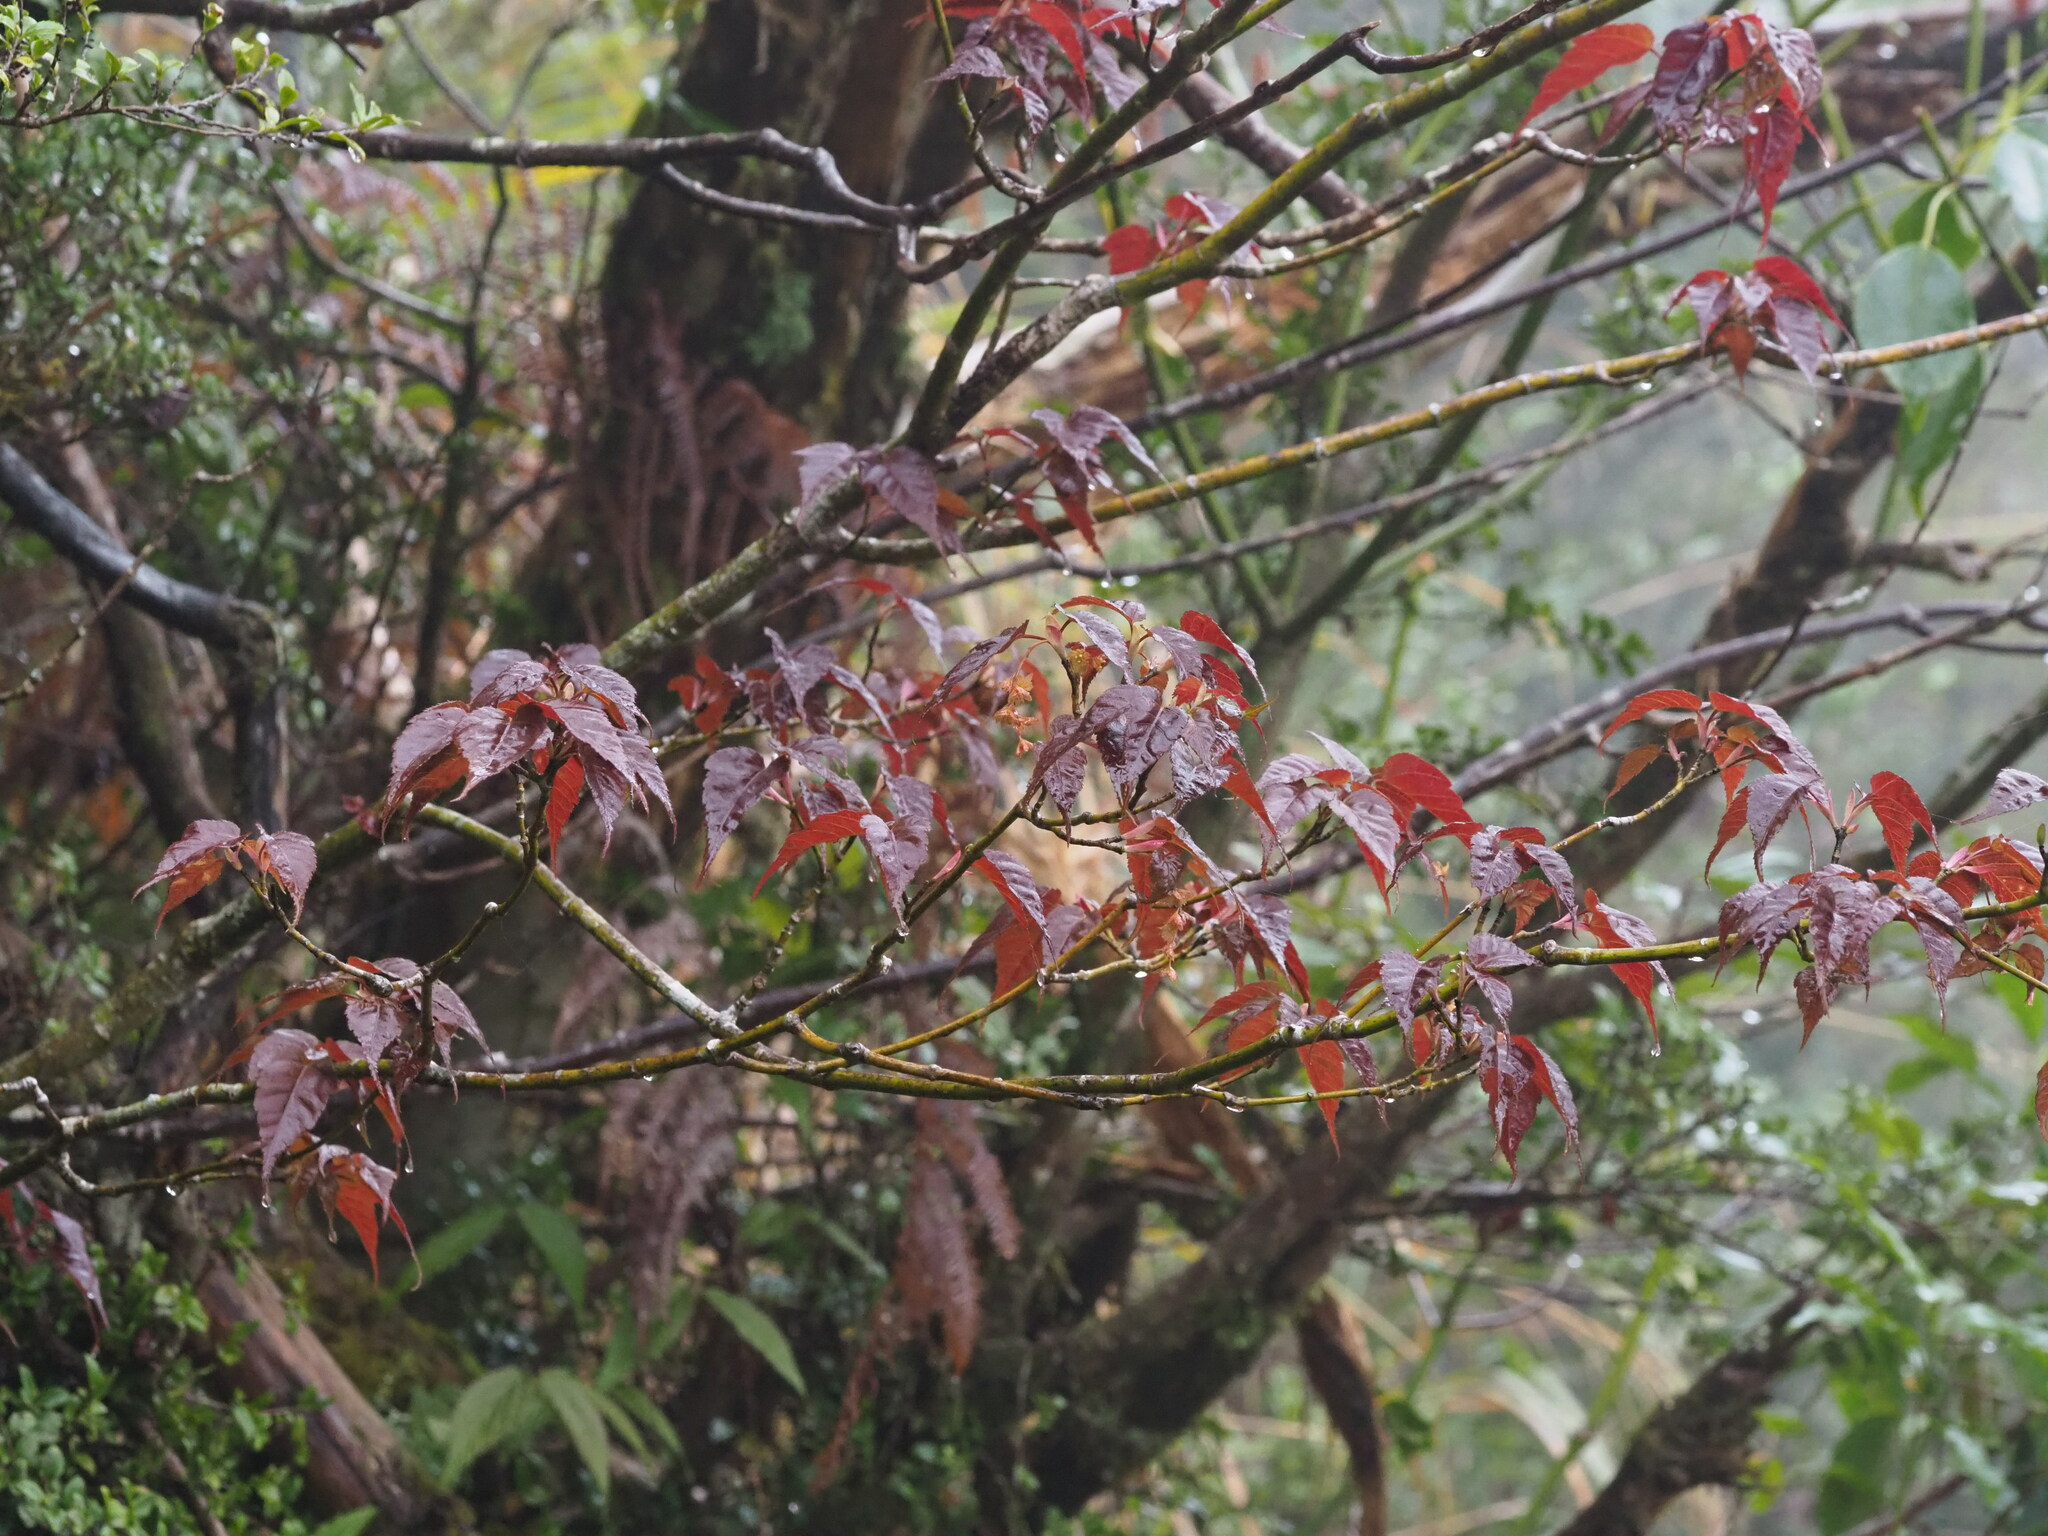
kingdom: Plantae
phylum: Tracheophyta
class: Magnoliopsida
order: Sapindales
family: Sapindaceae
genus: Acer
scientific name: Acer caudatifolium
